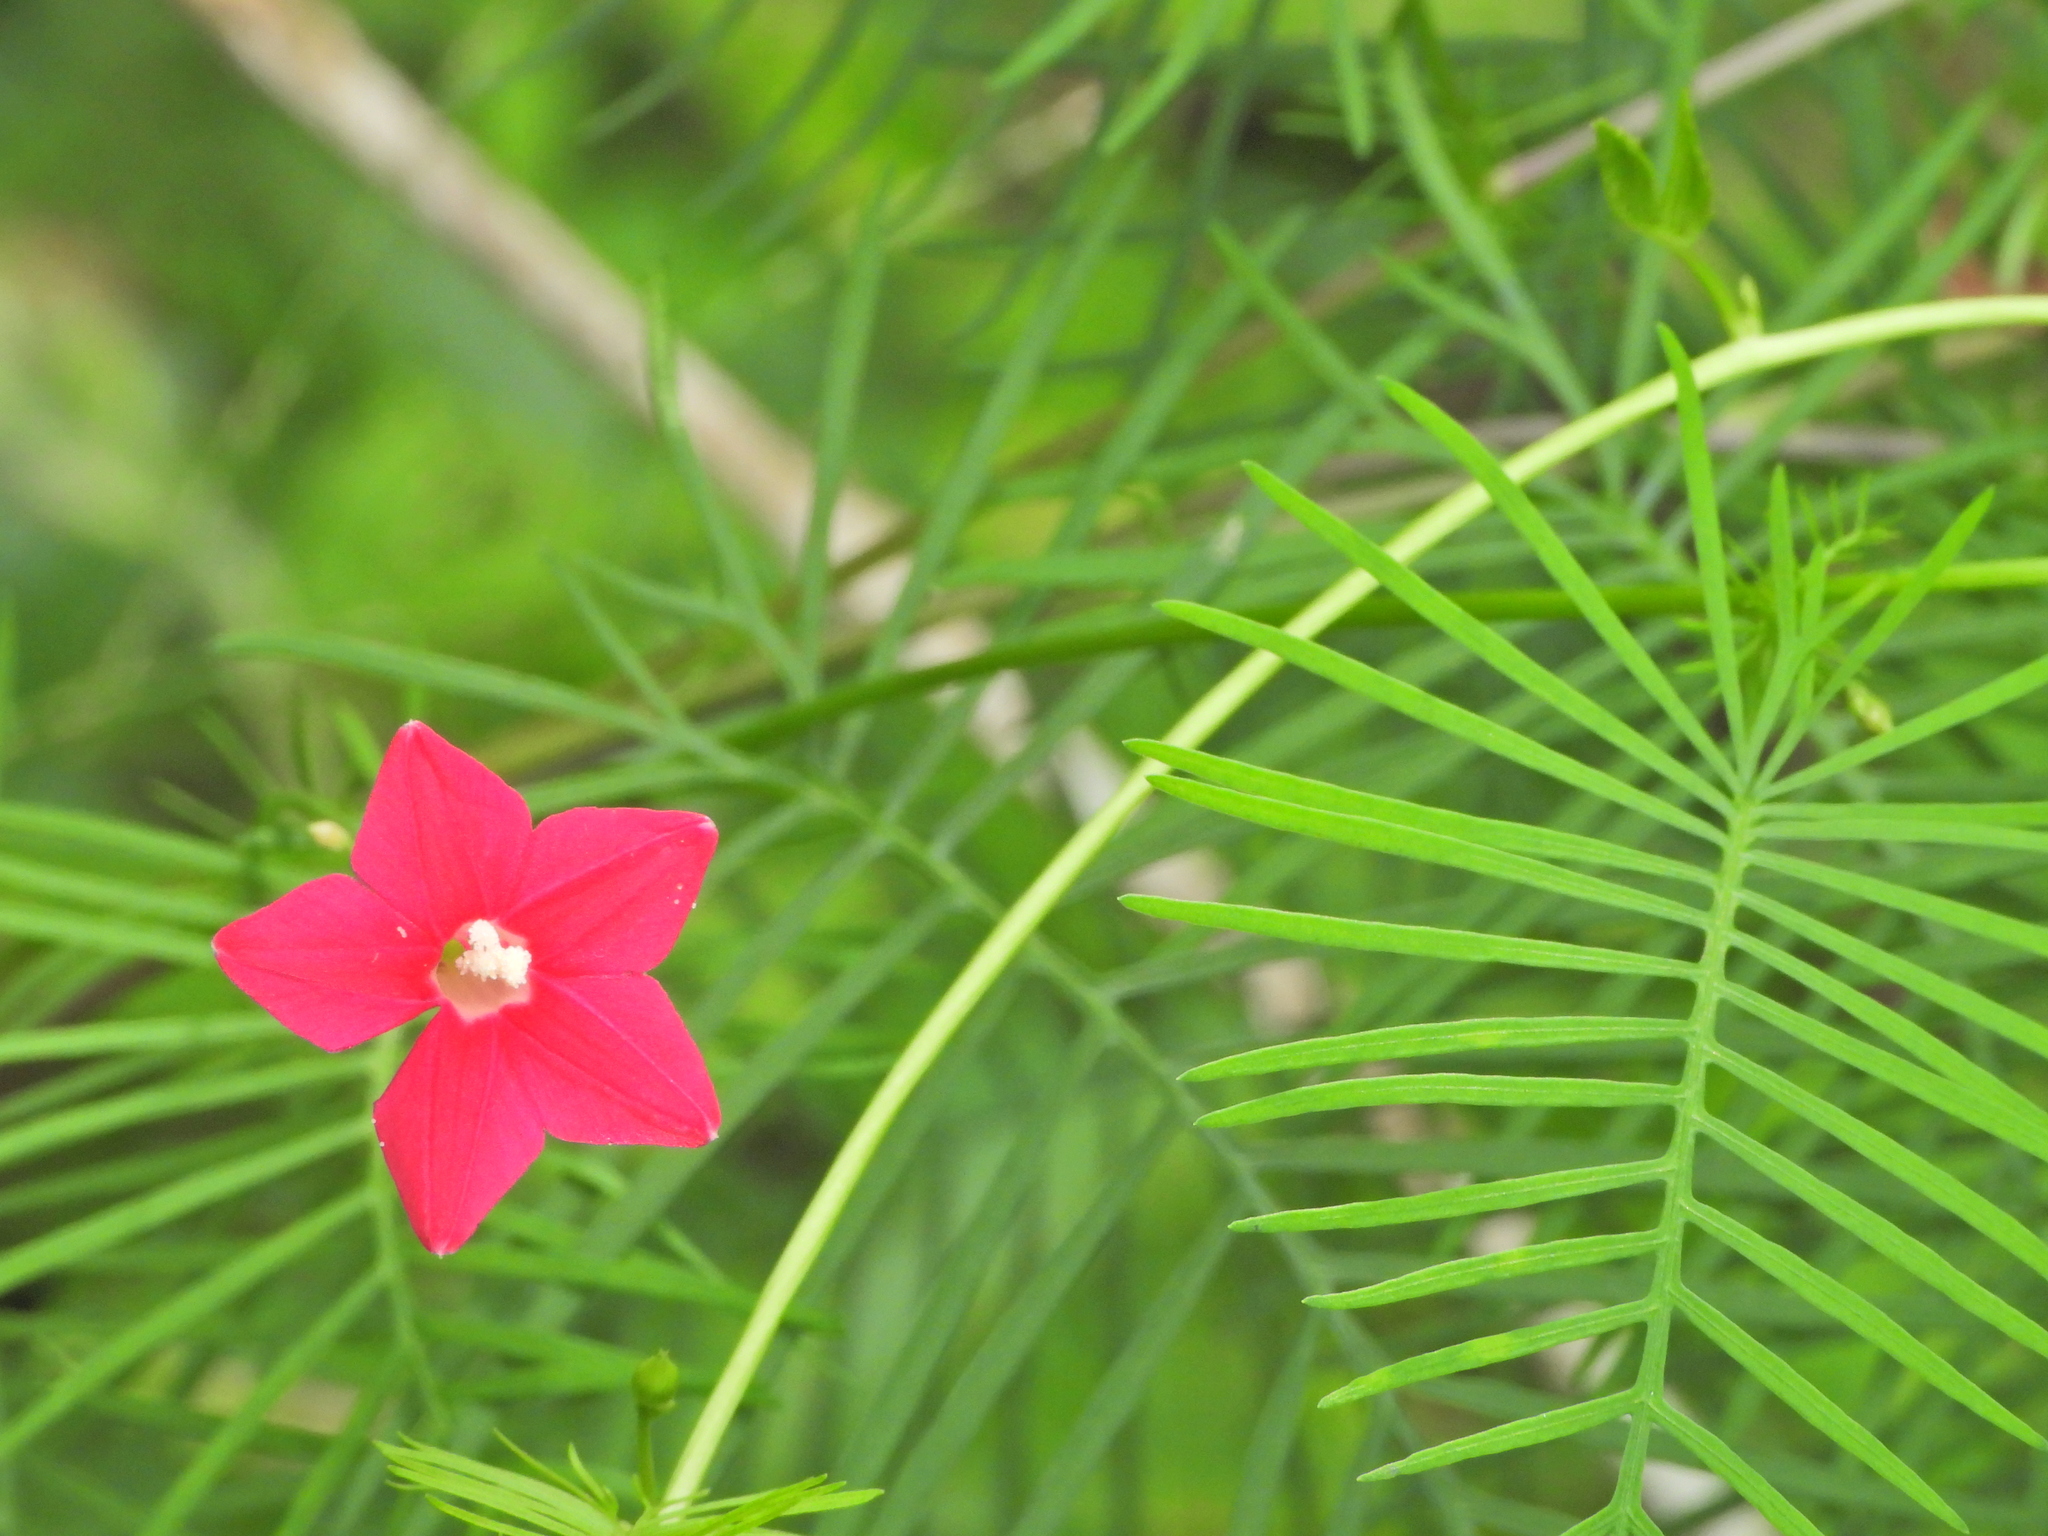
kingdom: Plantae
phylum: Tracheophyta
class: Magnoliopsida
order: Solanales
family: Convolvulaceae
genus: Ipomoea
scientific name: Ipomoea quamoclit
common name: Cypress vine
